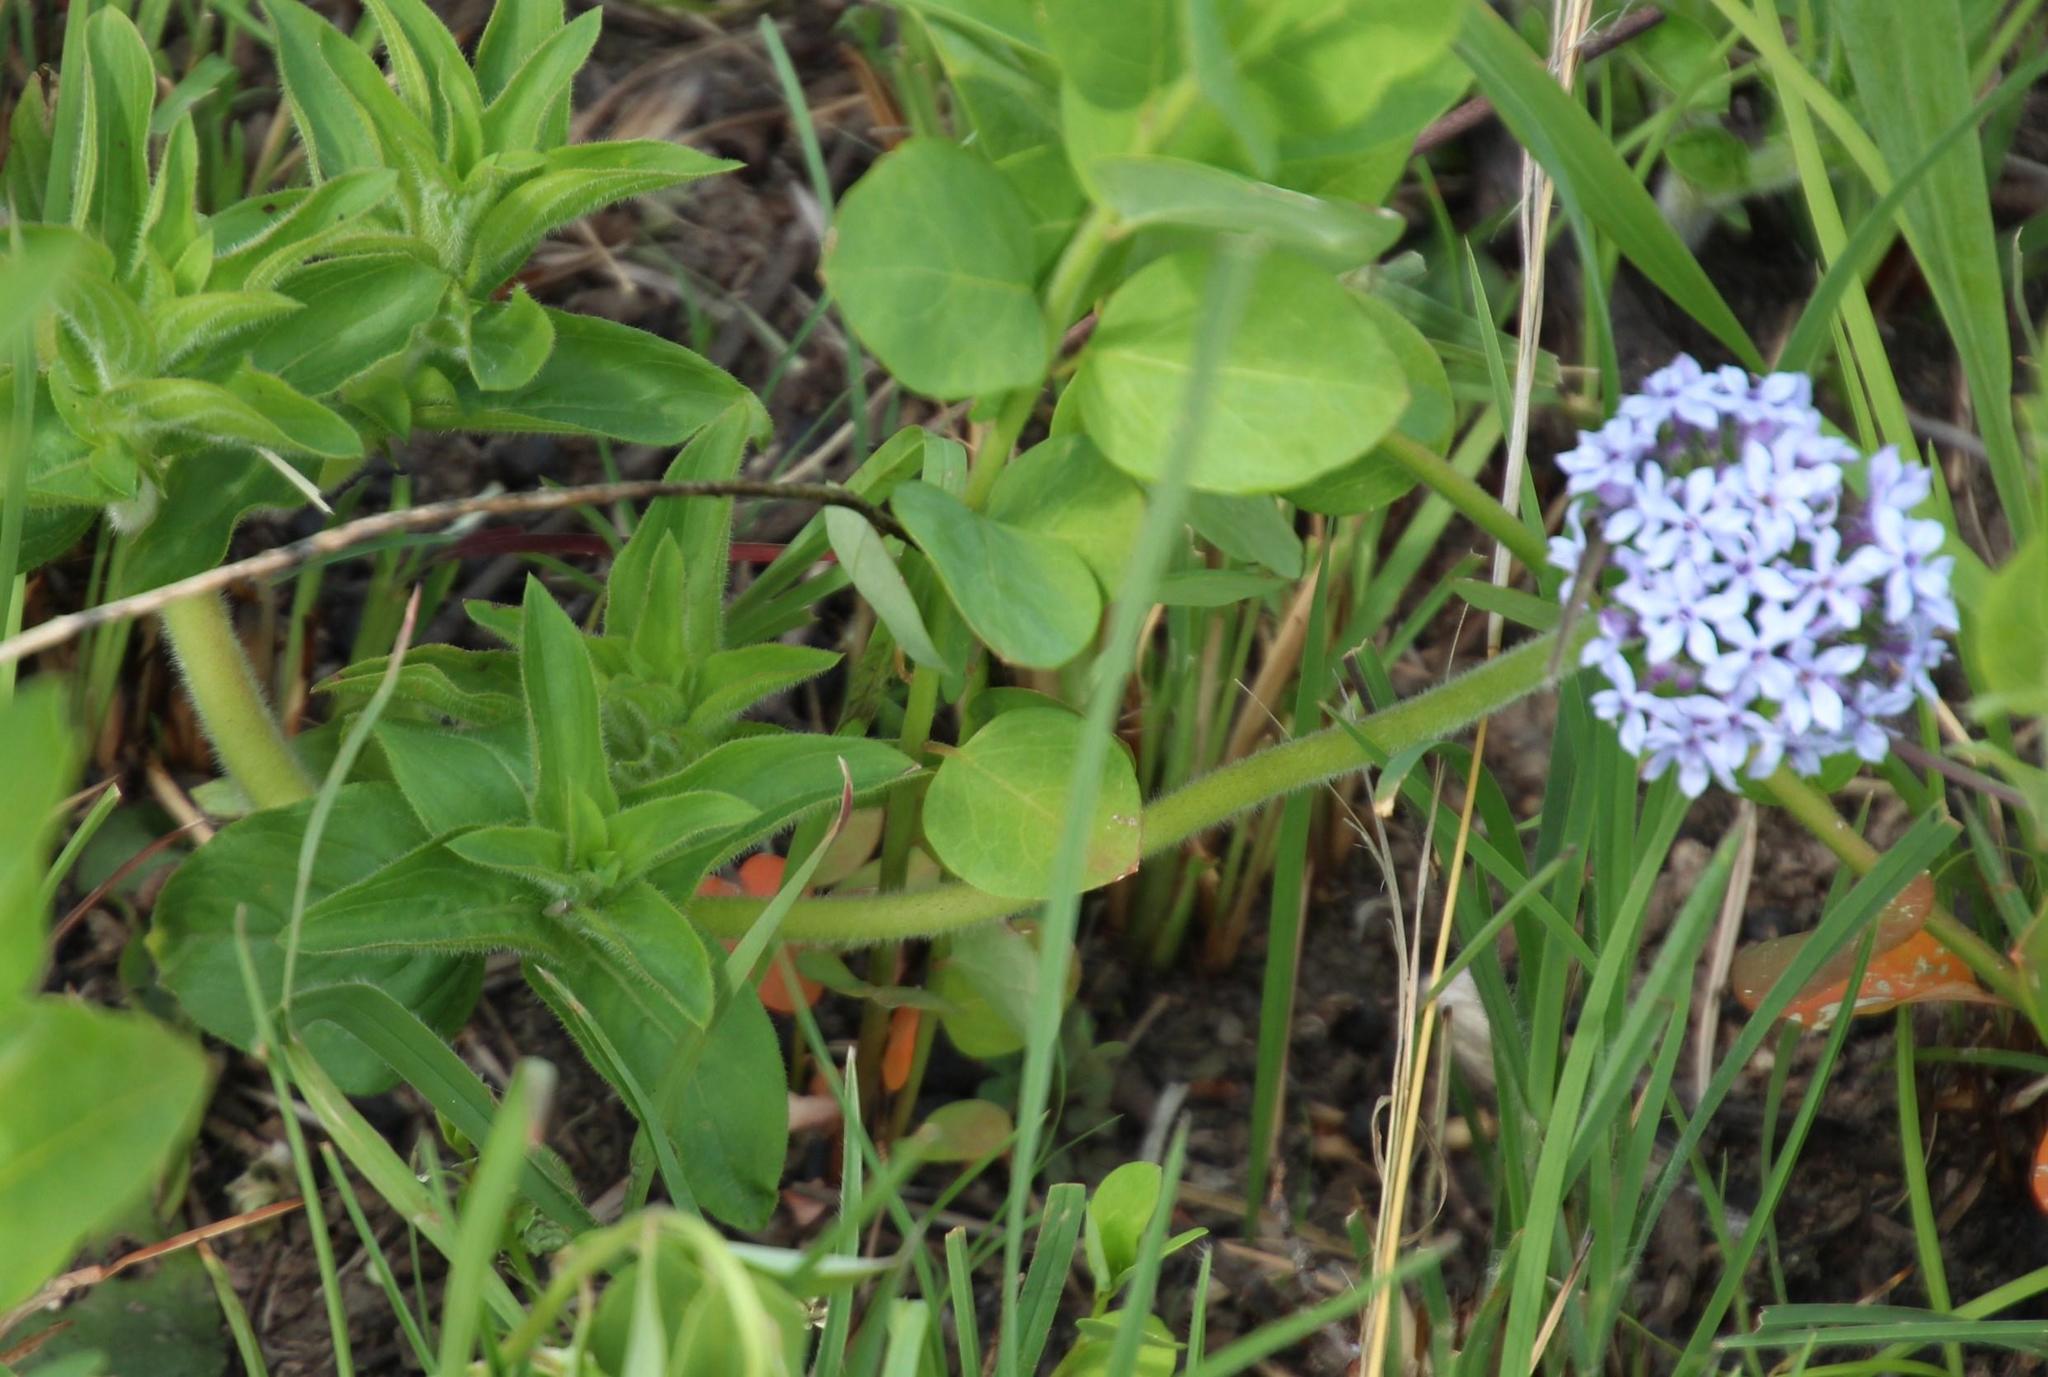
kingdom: Plantae
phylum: Tracheophyta
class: Magnoliopsida
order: Gentianales
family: Rubiaceae
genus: Pentanisia
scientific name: Pentanisia prunelloides
